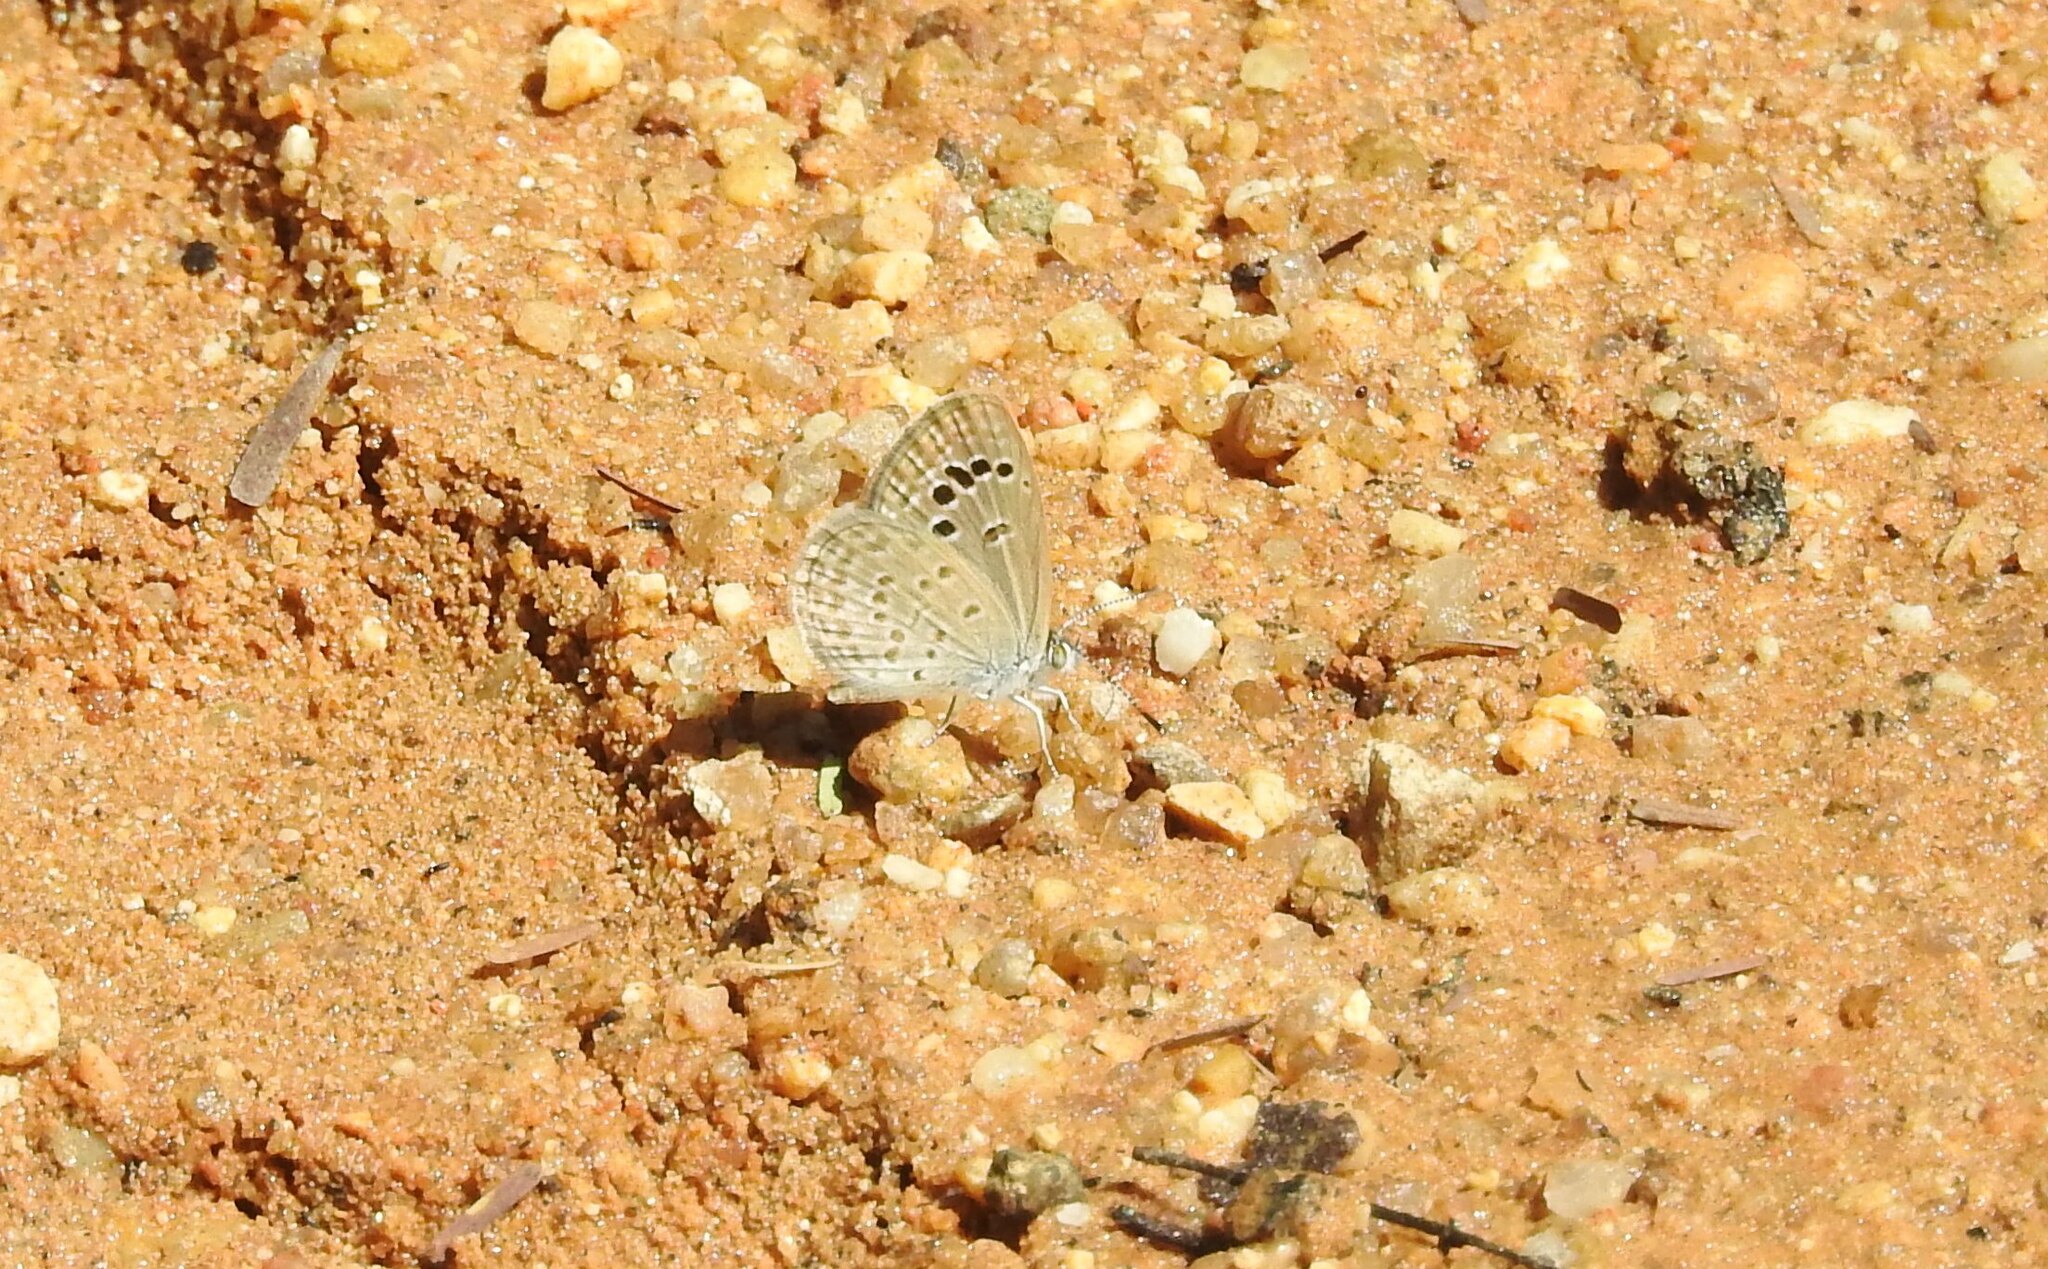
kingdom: Animalia
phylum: Arthropoda
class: Insecta
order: Lepidoptera
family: Lycaenidae
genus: Zizina
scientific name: Zizina otis
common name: Lesser grass blue
